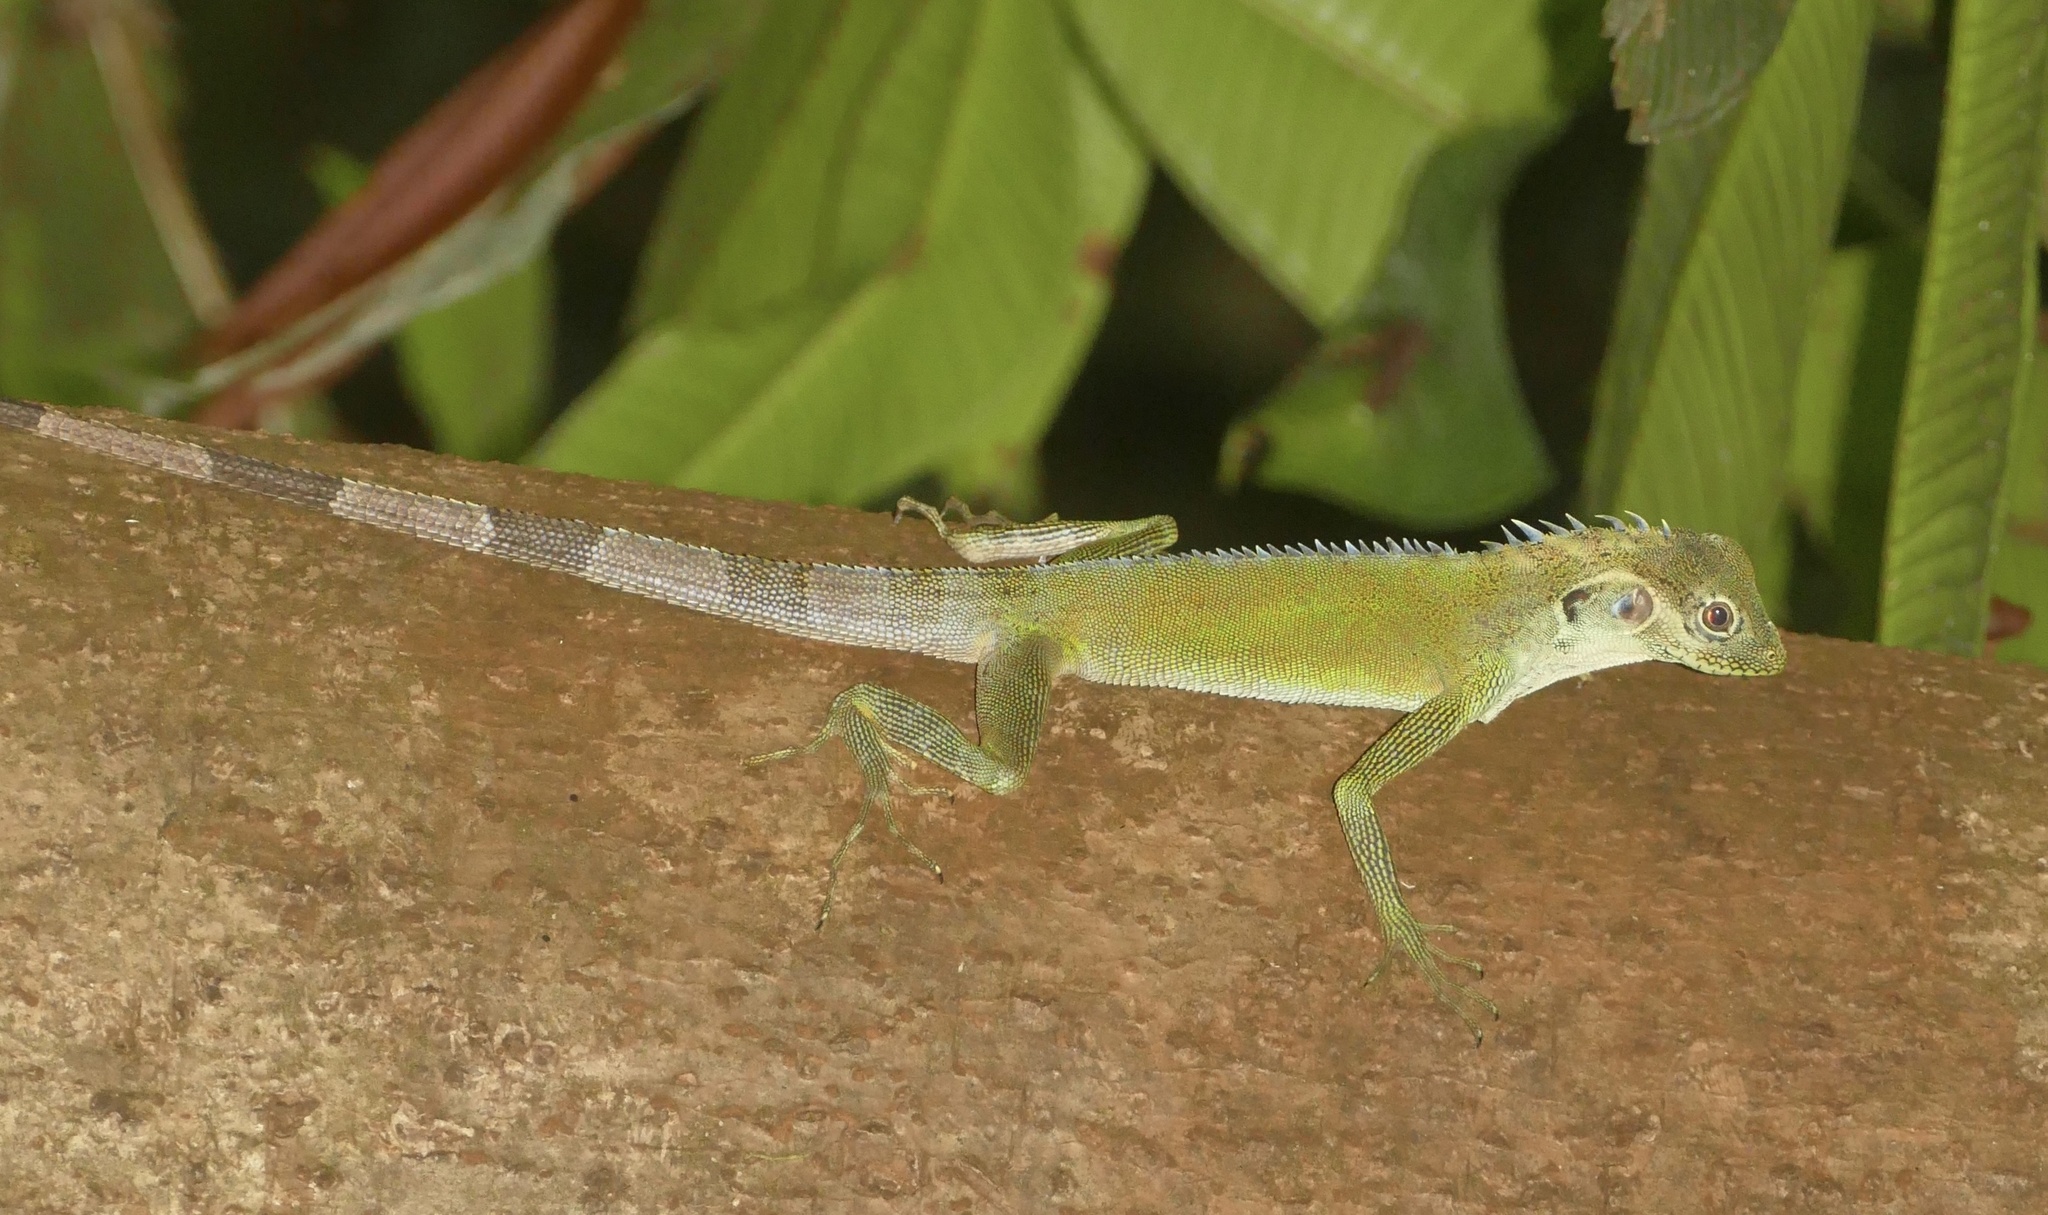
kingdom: Animalia
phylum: Chordata
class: Squamata
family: Agamidae
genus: Hypsilurus
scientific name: Hypsilurus auritus
